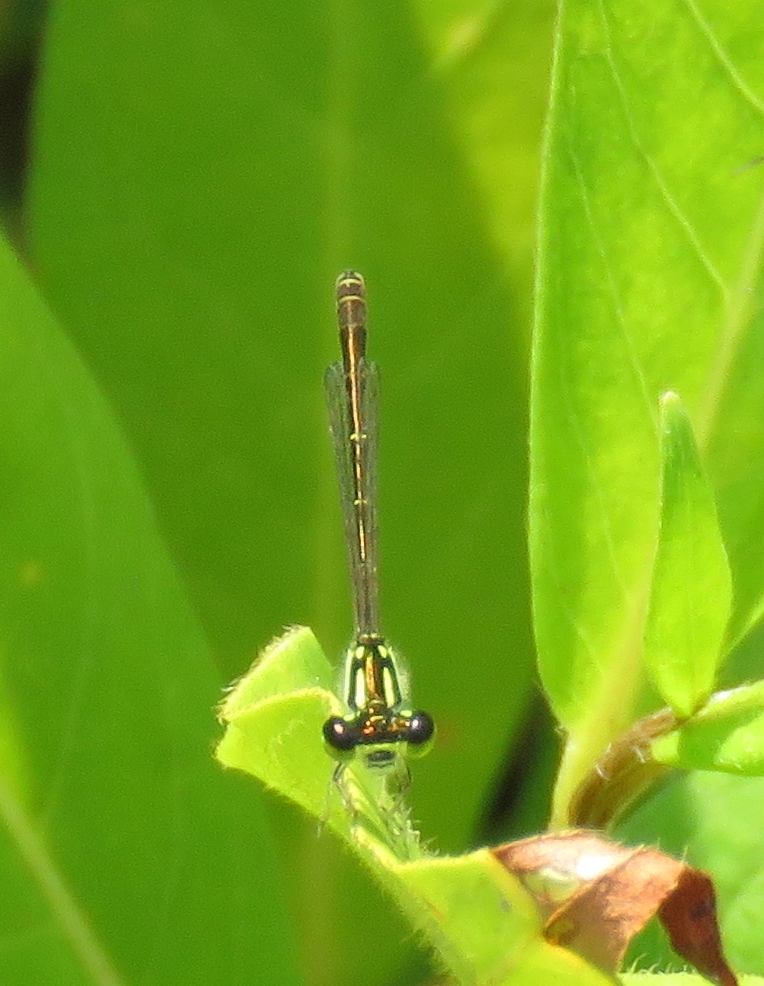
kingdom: Animalia
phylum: Arthropoda
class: Insecta
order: Odonata
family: Coenagrionidae
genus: Ischnura
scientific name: Ischnura posita
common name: Fragile forktail
